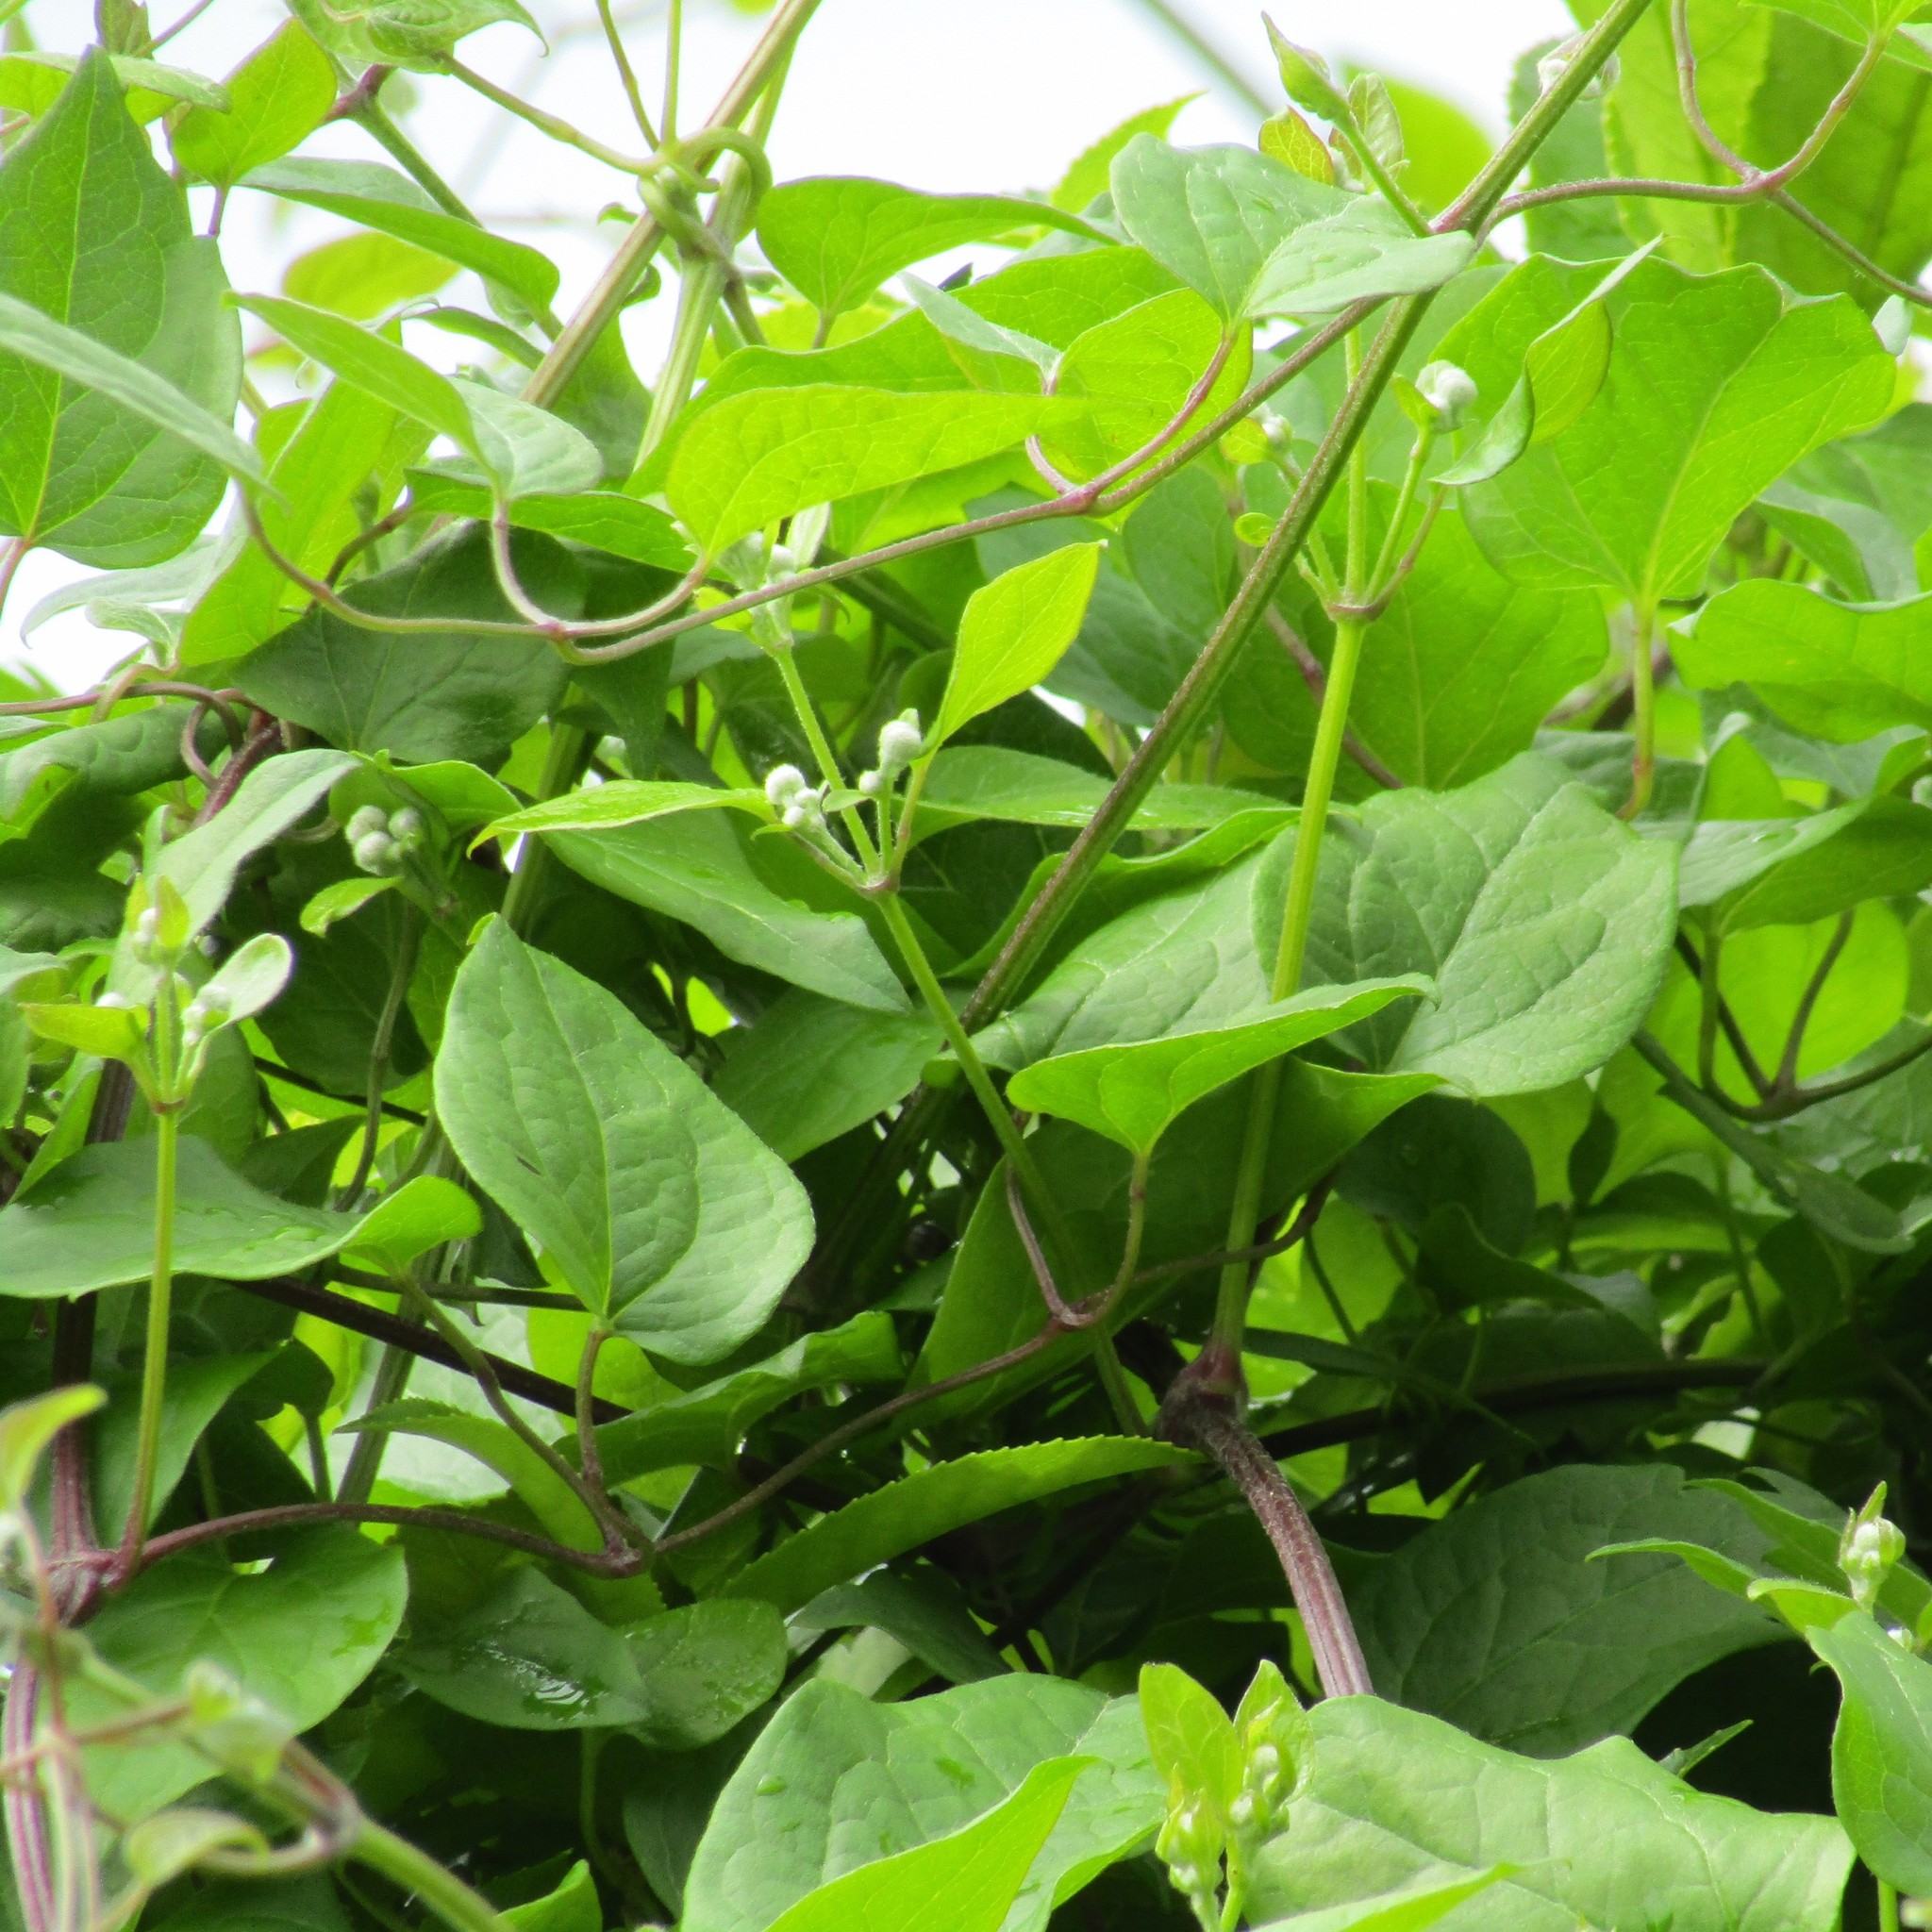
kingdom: Plantae
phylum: Tracheophyta
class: Magnoliopsida
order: Ranunculales
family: Ranunculaceae
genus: Clematis
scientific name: Clematis vitalba
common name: Evergreen clematis
